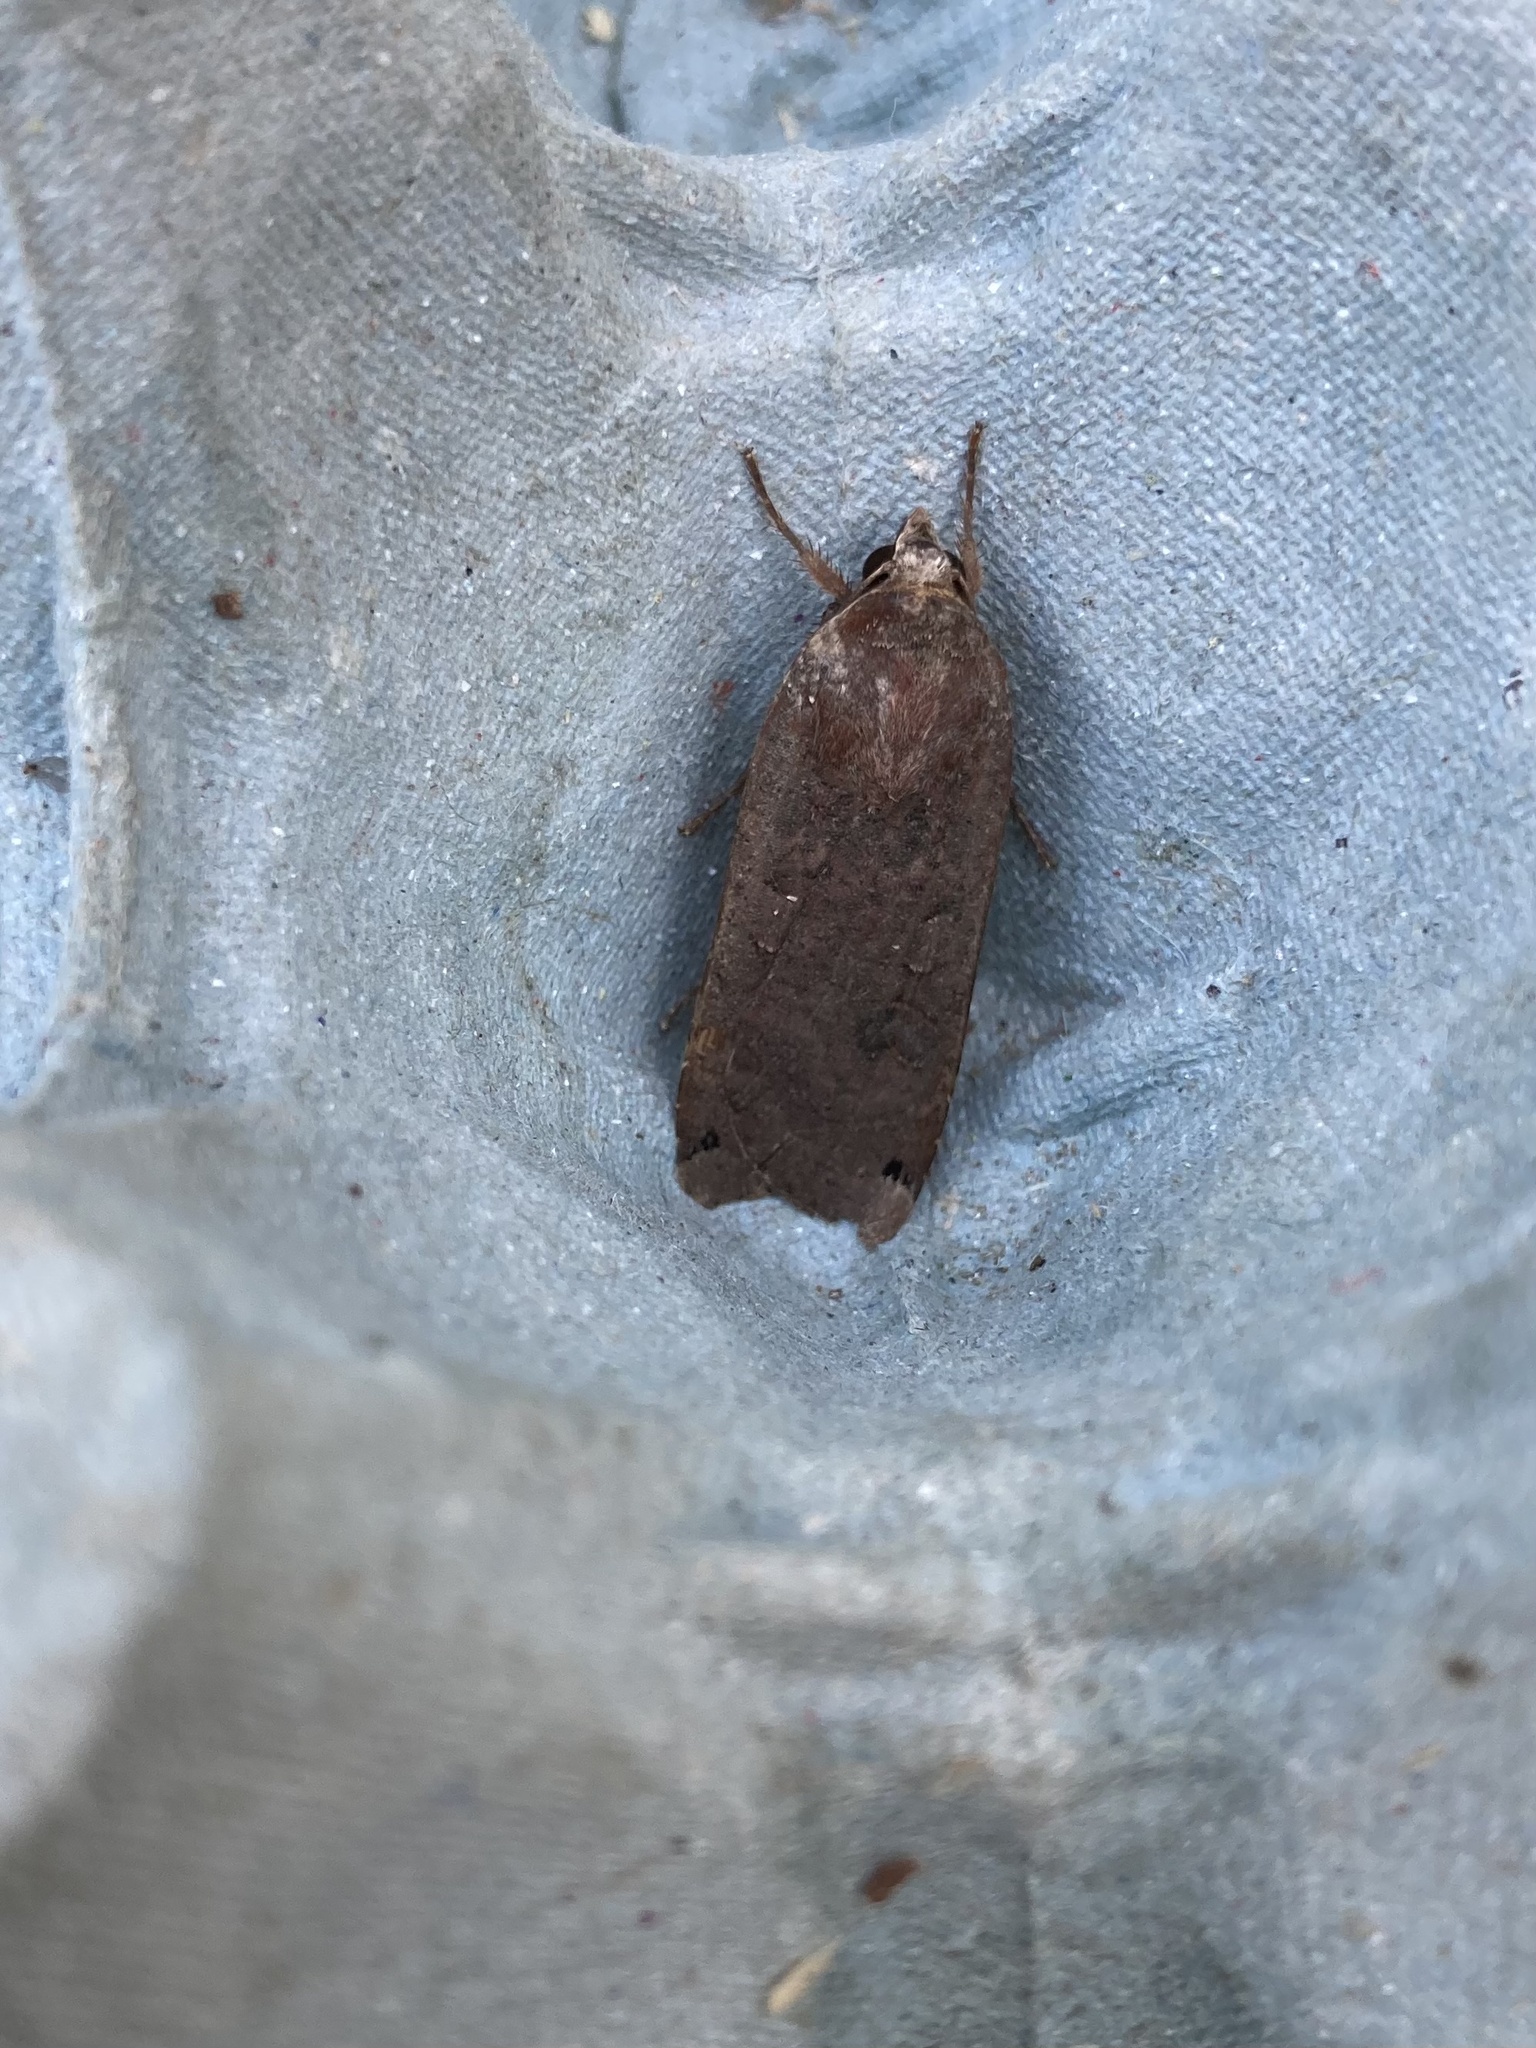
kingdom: Animalia
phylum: Arthropoda
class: Insecta
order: Lepidoptera
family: Noctuidae
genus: Noctua
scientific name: Noctua pronuba
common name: Large yellow underwing
